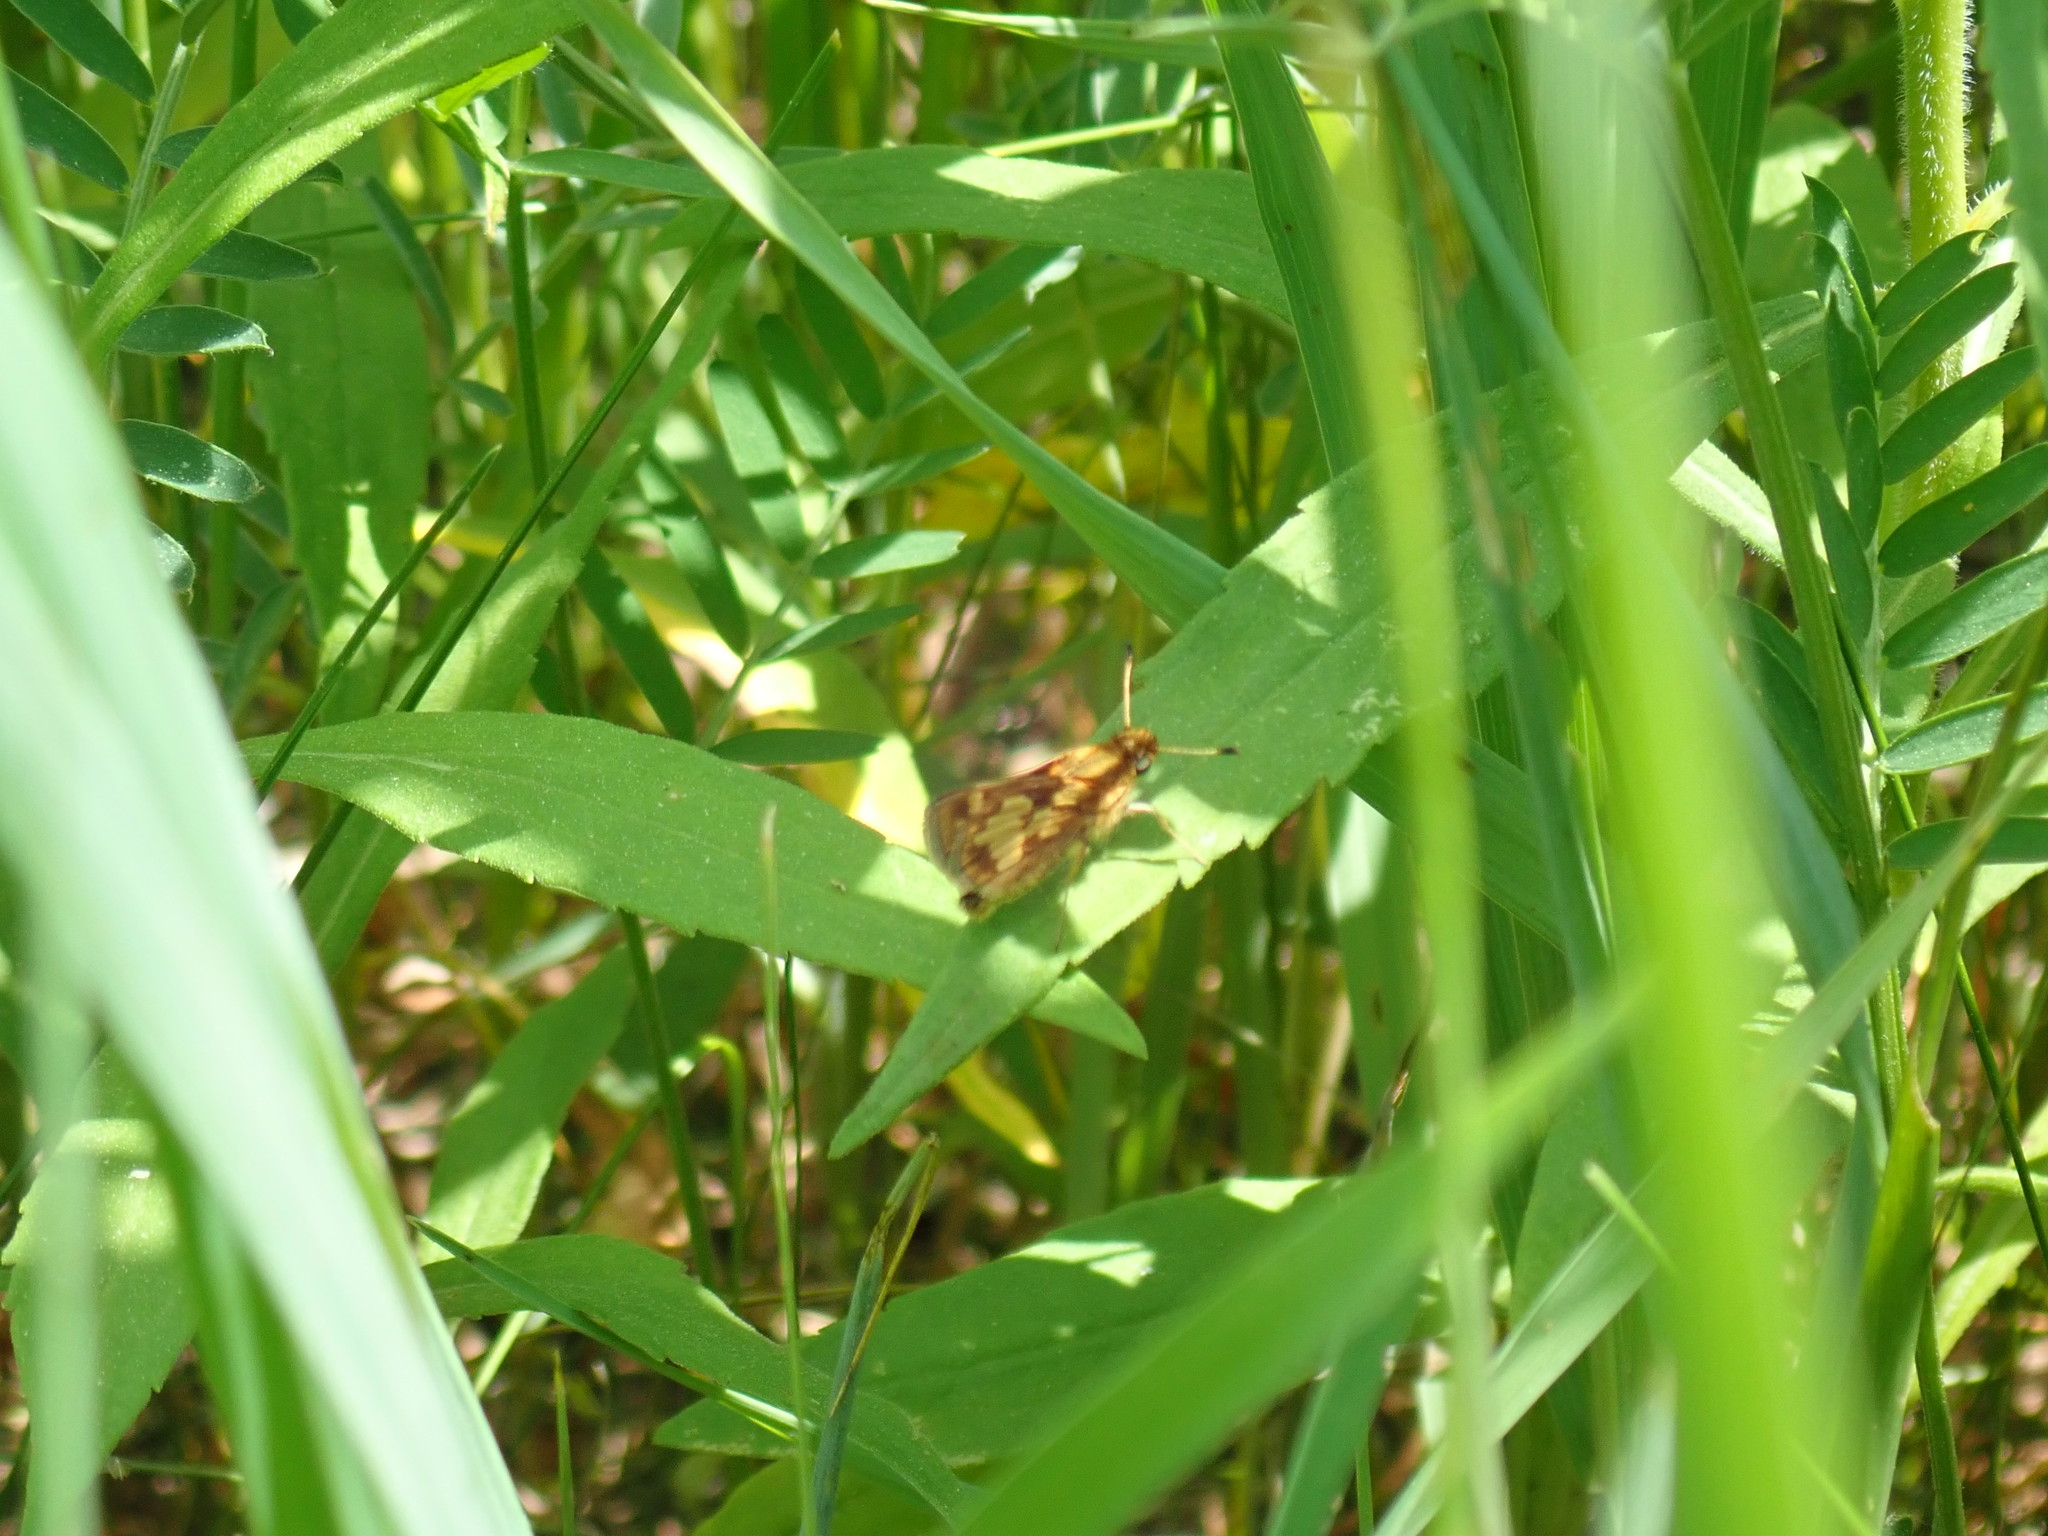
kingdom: Animalia
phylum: Arthropoda
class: Insecta
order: Lepidoptera
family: Hesperiidae
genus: Polites
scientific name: Polites coras
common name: Peck's skipper
